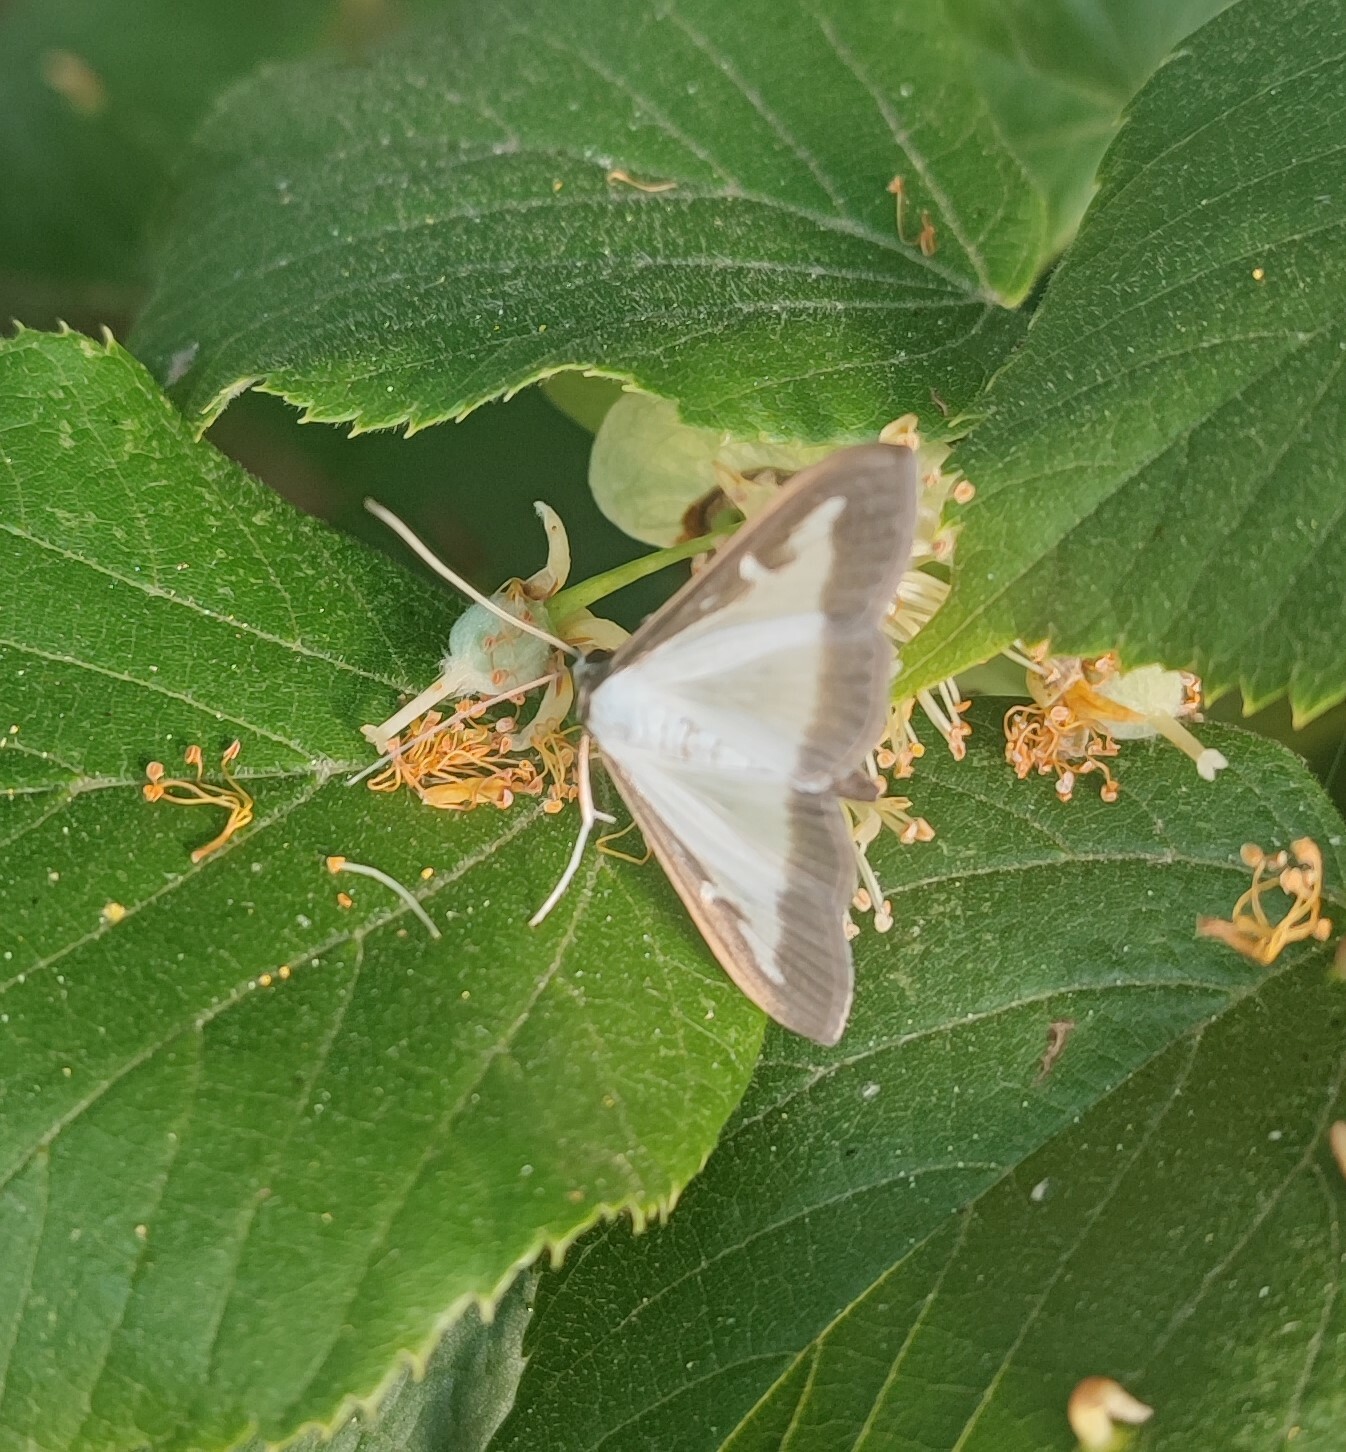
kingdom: Animalia
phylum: Arthropoda
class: Insecta
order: Lepidoptera
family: Crambidae
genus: Cydalima
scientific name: Cydalima perspectalis
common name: Box tree moth
